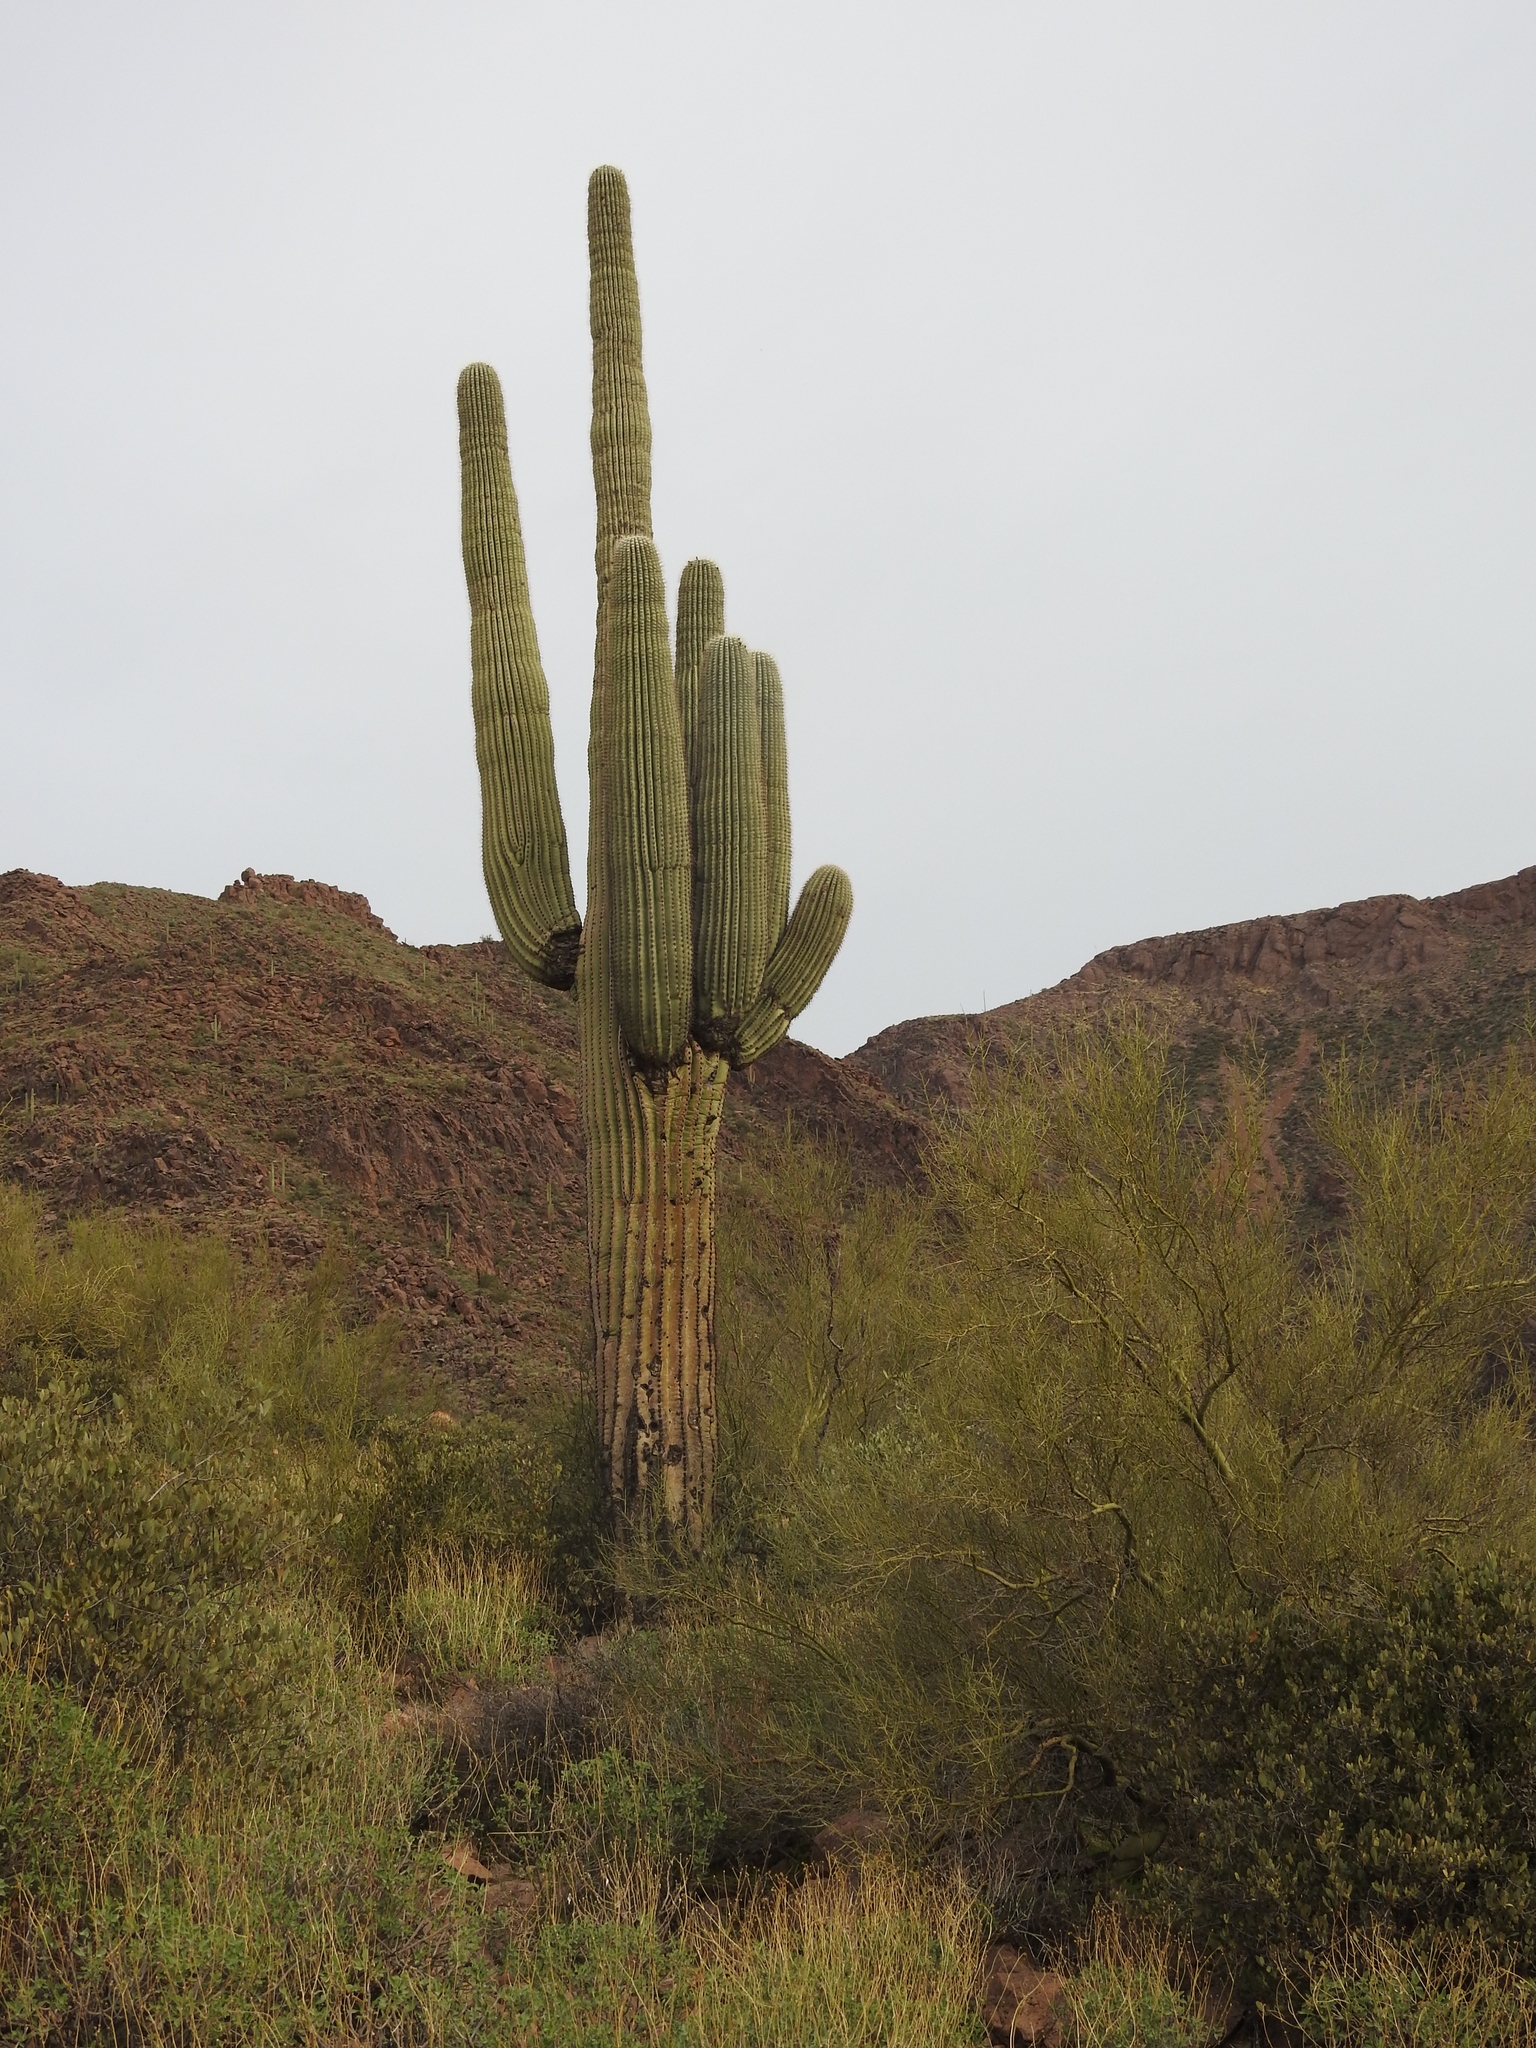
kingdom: Plantae
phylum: Tracheophyta
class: Magnoliopsida
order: Caryophyllales
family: Cactaceae
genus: Carnegiea
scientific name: Carnegiea gigantea
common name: Saguaro
